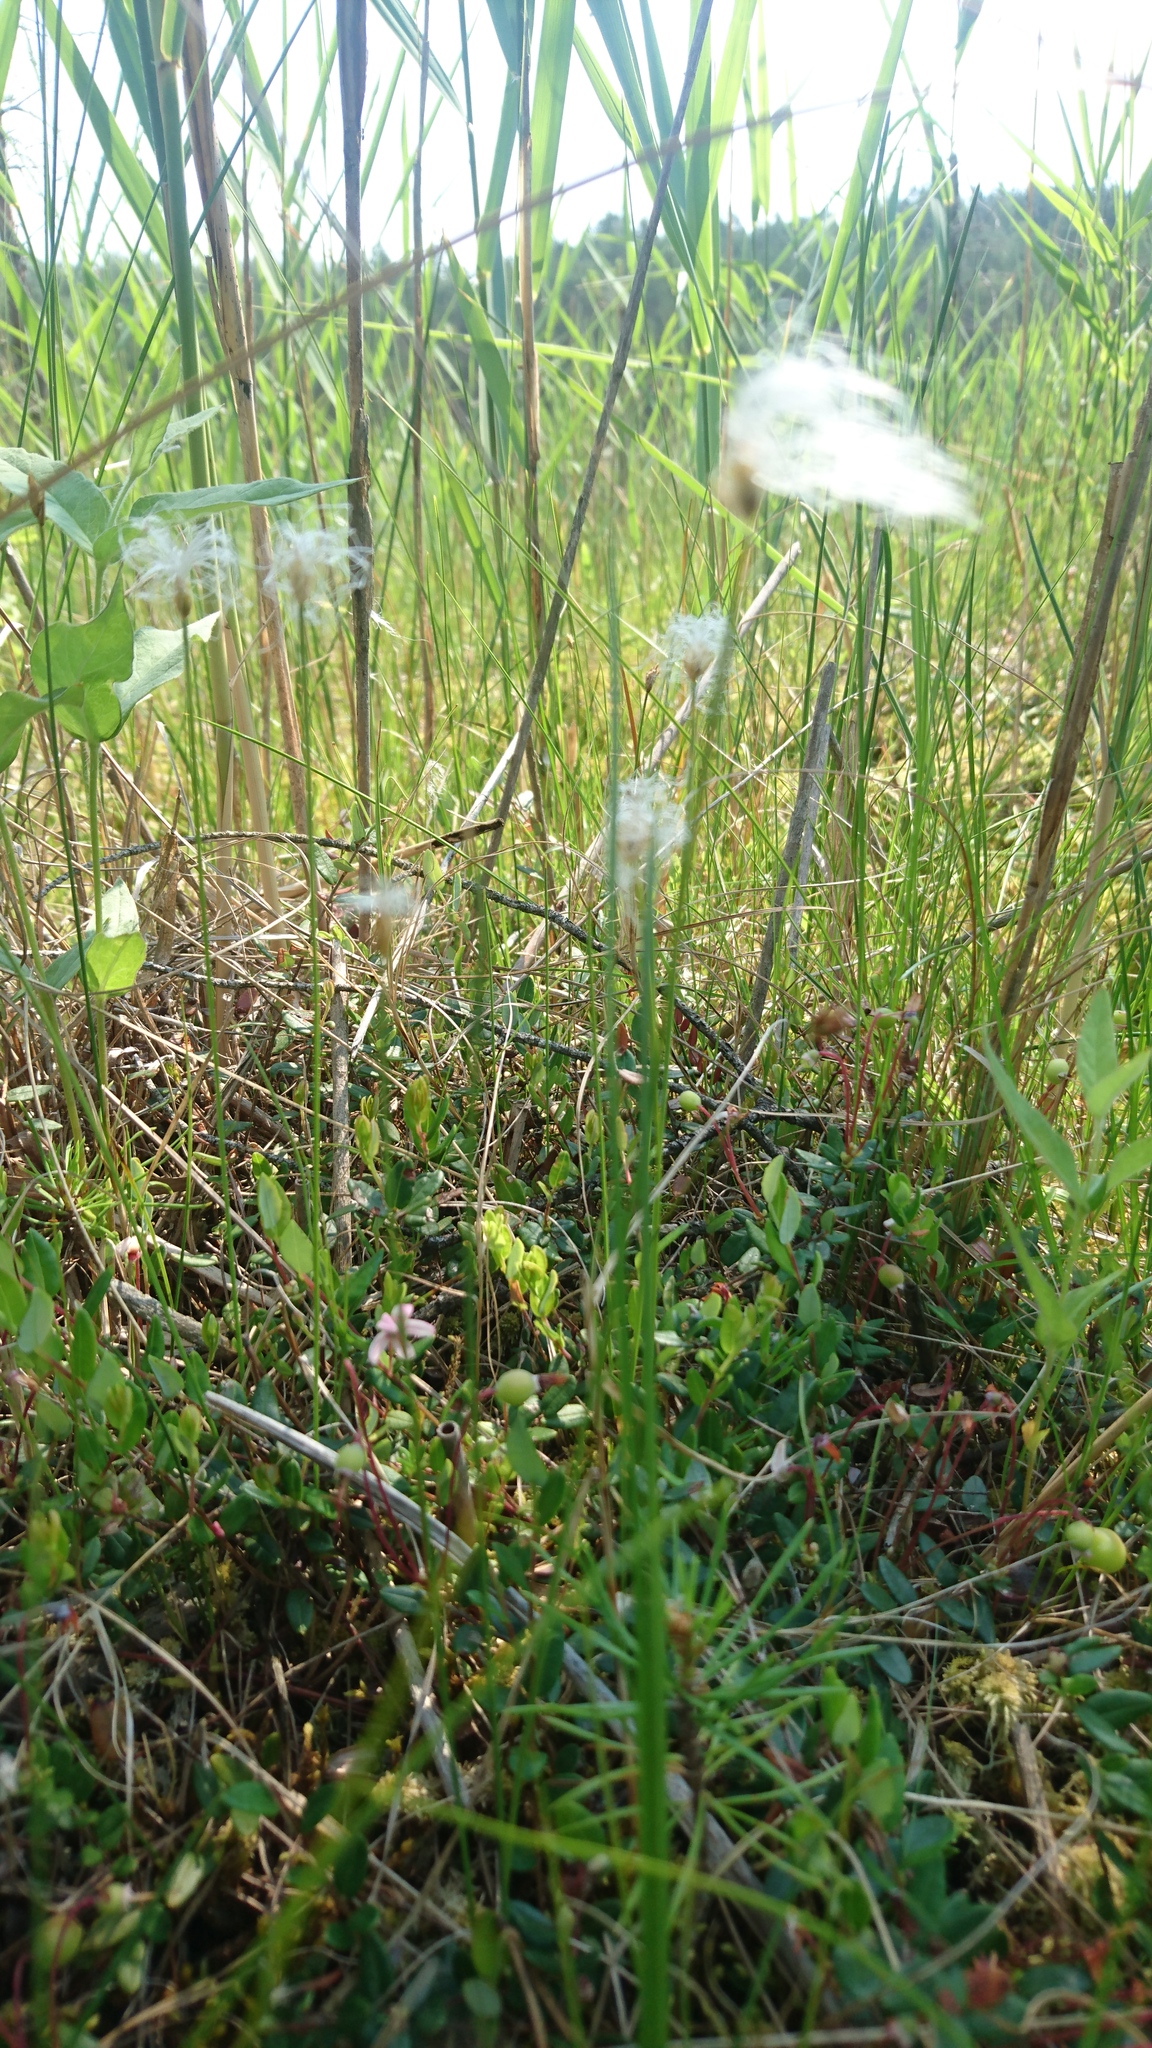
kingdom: Plantae
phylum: Tracheophyta
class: Liliopsida
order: Poales
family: Cyperaceae
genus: Trichophorum
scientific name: Trichophorum alpinum
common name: Alpine bulrush
